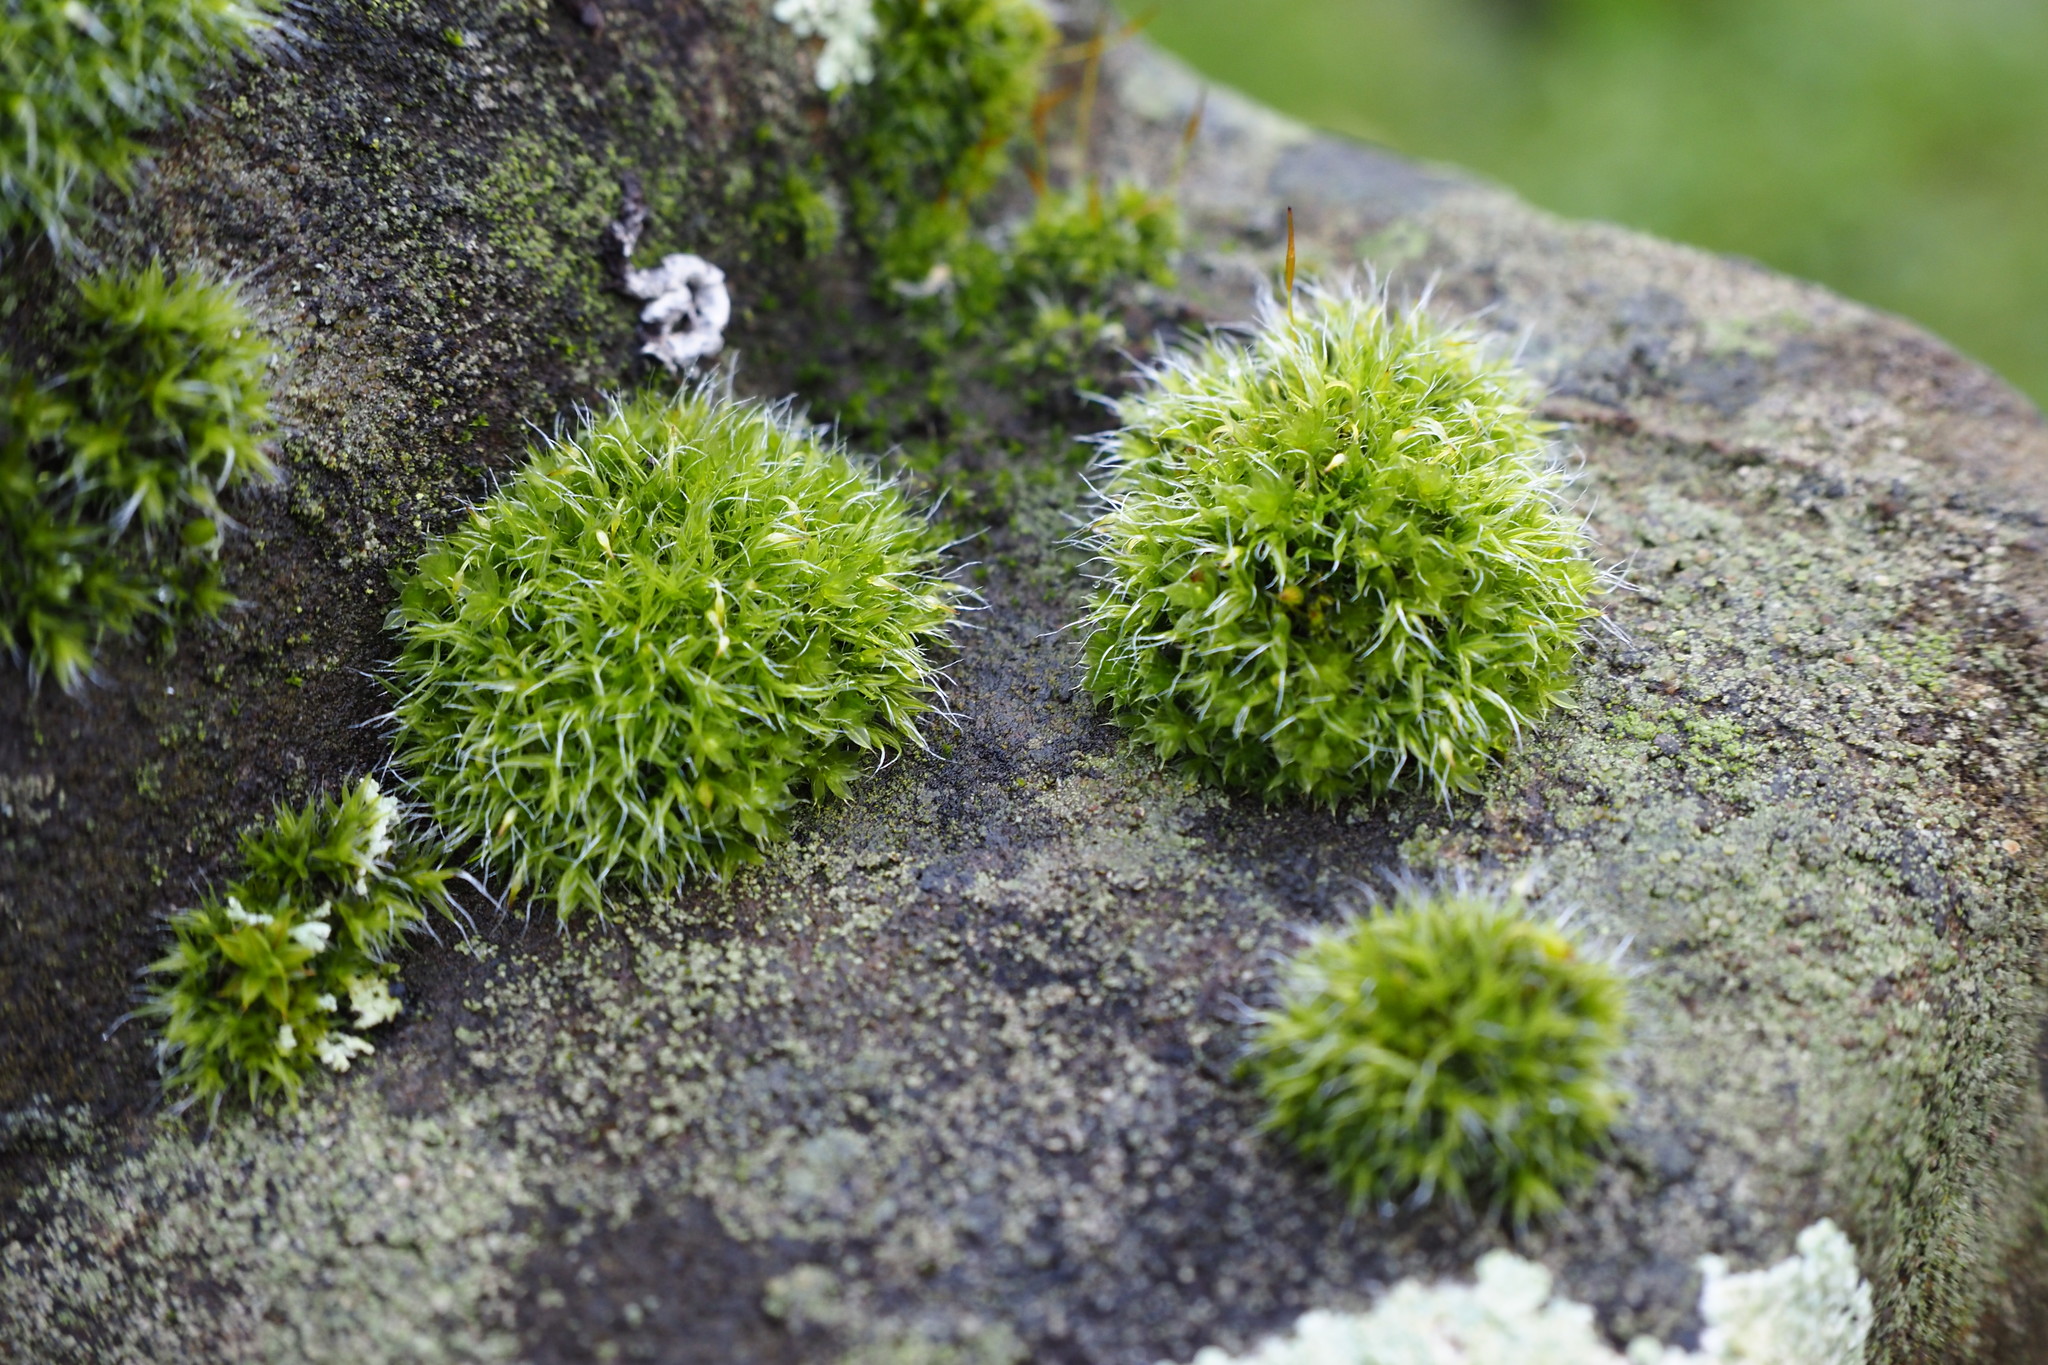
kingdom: Plantae
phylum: Bryophyta
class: Bryopsida
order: Grimmiales
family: Grimmiaceae
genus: Grimmia
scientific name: Grimmia pulvinata
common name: Grey-cushioned grimmia
